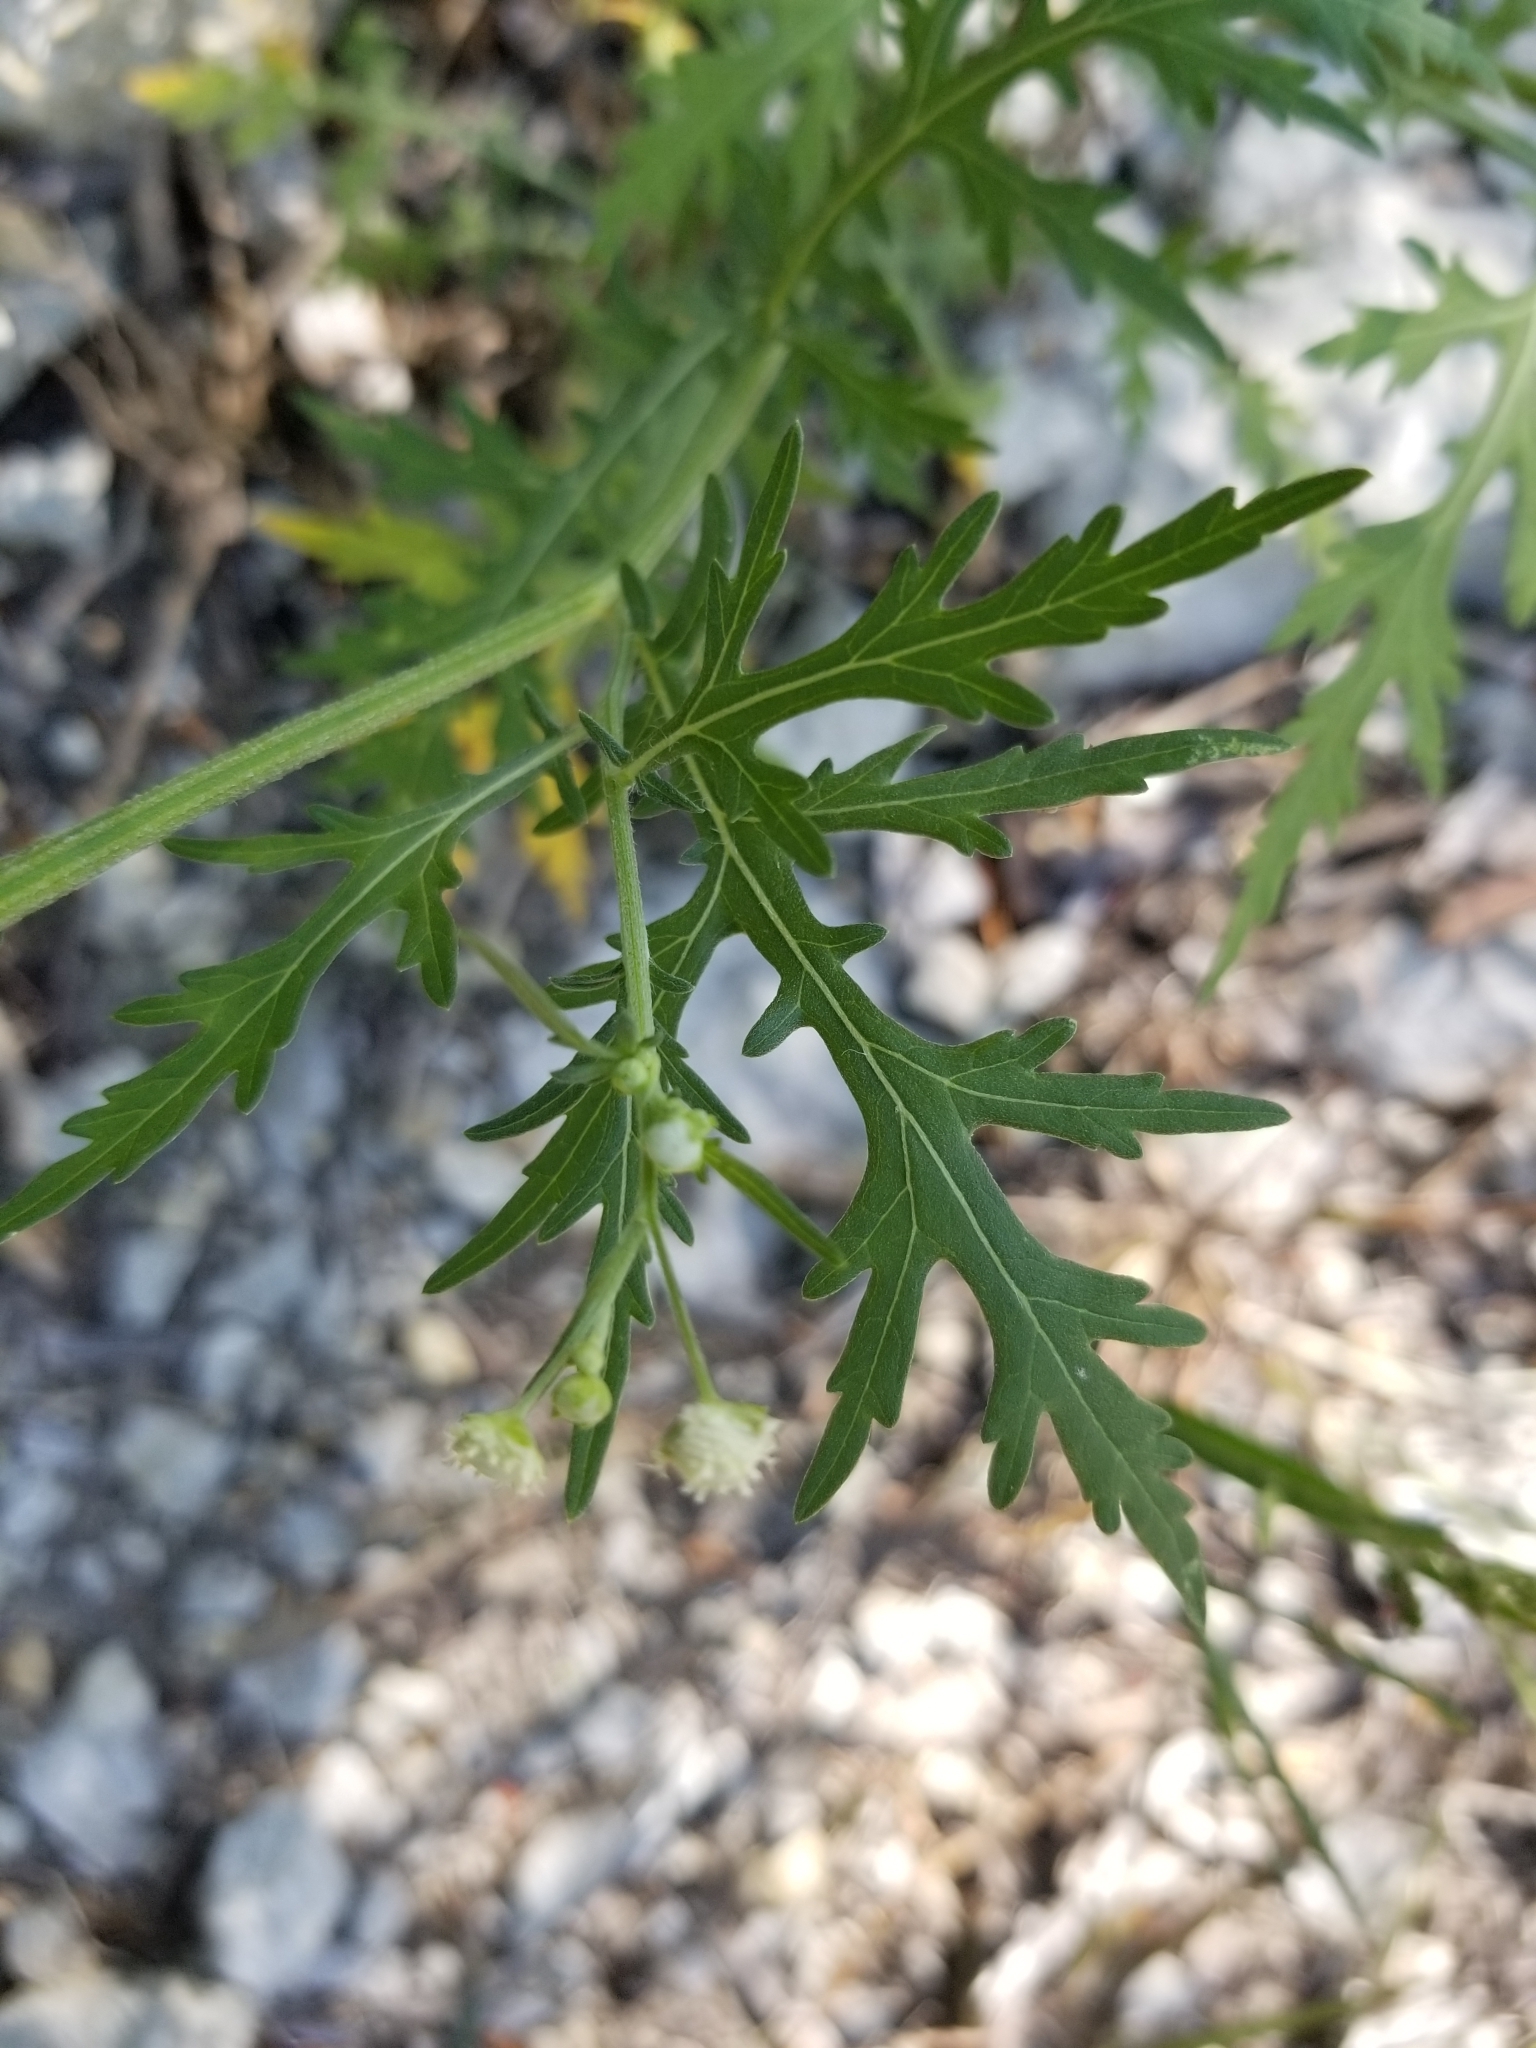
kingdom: Plantae
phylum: Tracheophyta
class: Magnoliopsida
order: Asterales
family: Asteraceae
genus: Parthenium
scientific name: Parthenium hysterophorus
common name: Santa maria feverfew
